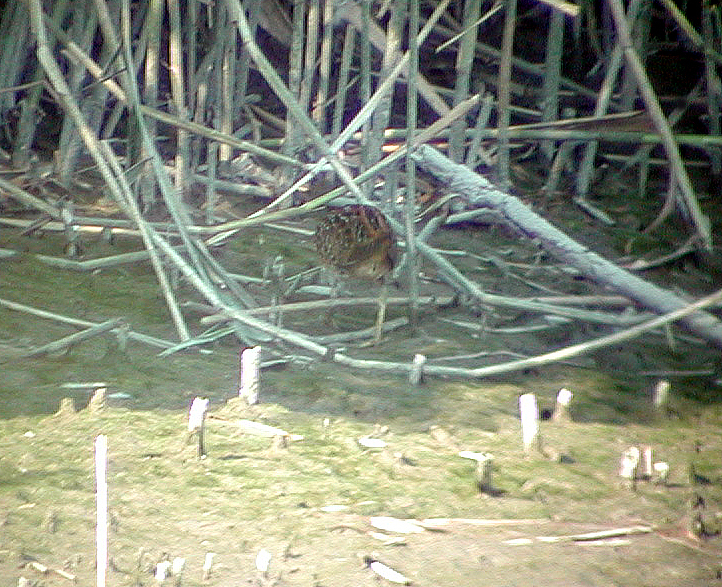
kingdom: Animalia
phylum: Chordata
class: Aves
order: Gruiformes
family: Rallidae
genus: Porzana
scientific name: Porzana porzana
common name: Spotted crake
